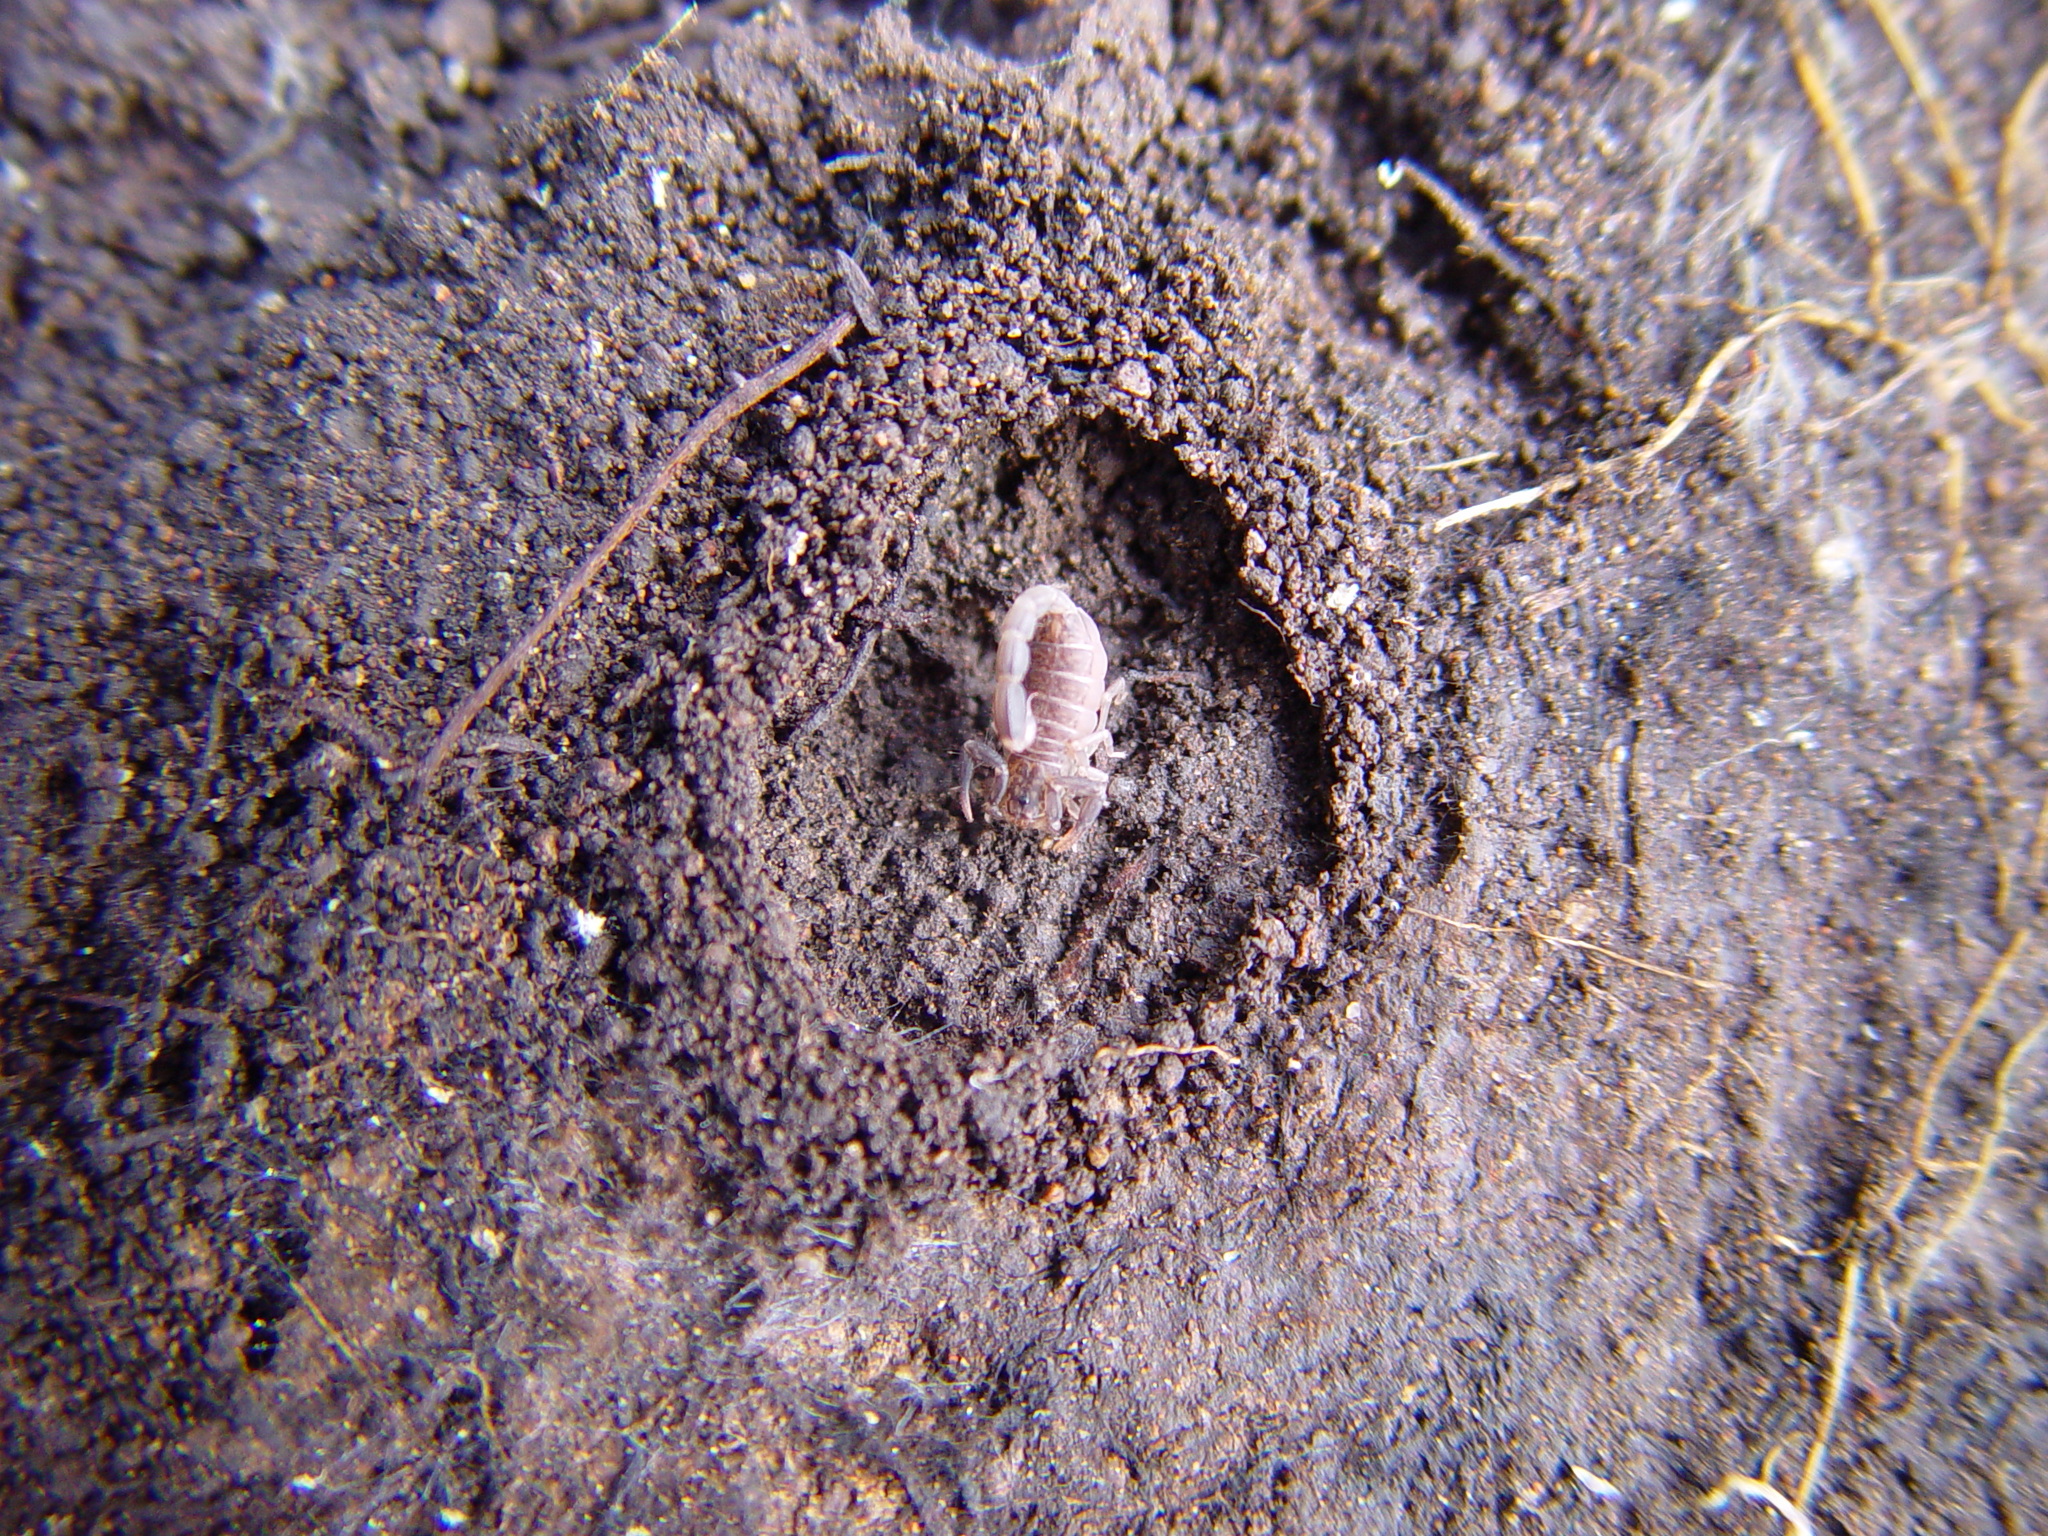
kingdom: Animalia
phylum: Arthropoda
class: Arachnida
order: Scorpiones
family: Vaejovidae
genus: Vaejovis
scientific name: Vaejovis cashi
